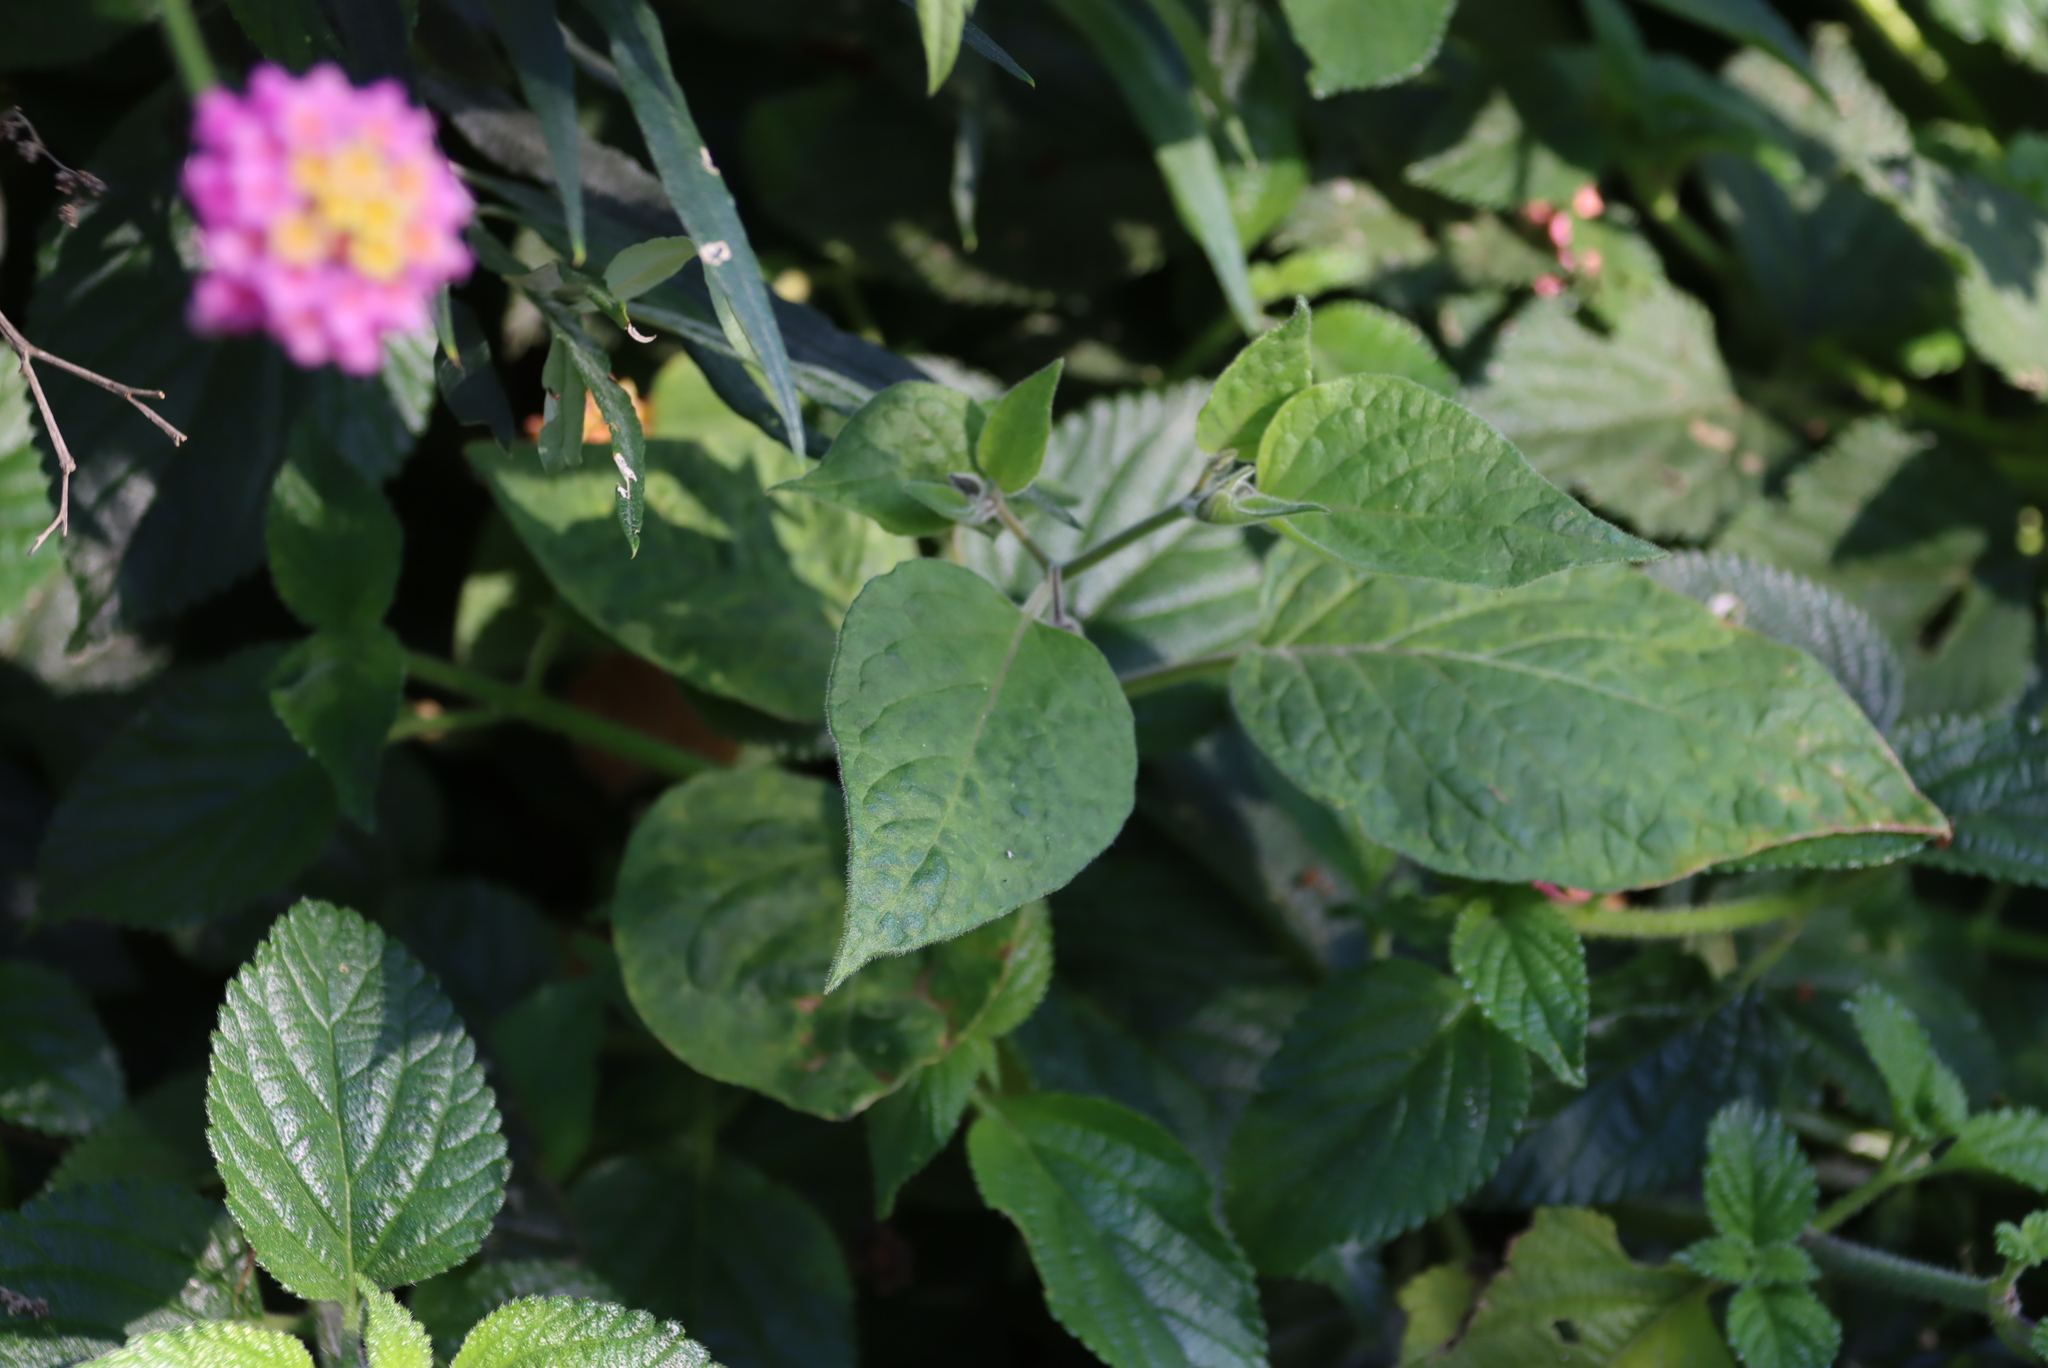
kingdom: Plantae
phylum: Tracheophyta
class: Magnoliopsida
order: Solanales
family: Solanaceae
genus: Physalis
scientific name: Physalis peruviana
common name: Cape-gooseberry
